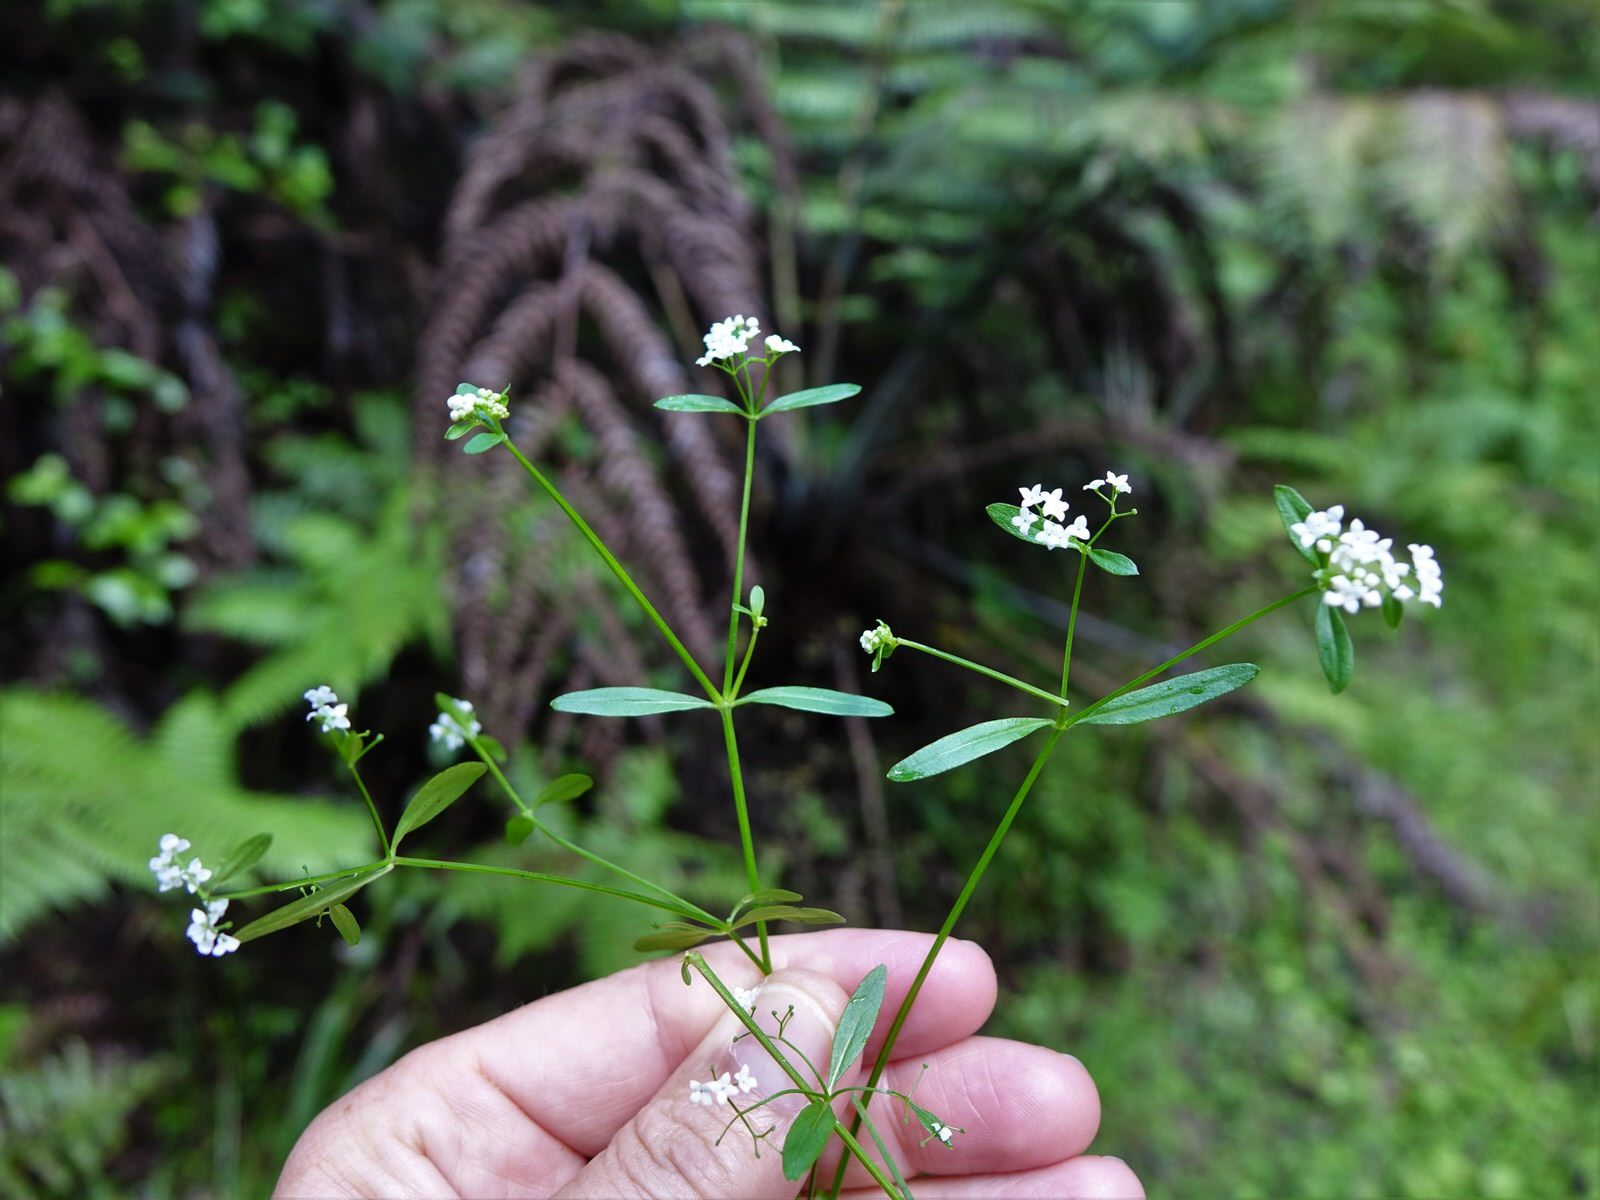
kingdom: Plantae
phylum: Tracheophyta
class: Magnoliopsida
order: Gentianales
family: Rubiaceae
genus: Galium
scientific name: Galium palustre
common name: Common marsh-bedstraw
